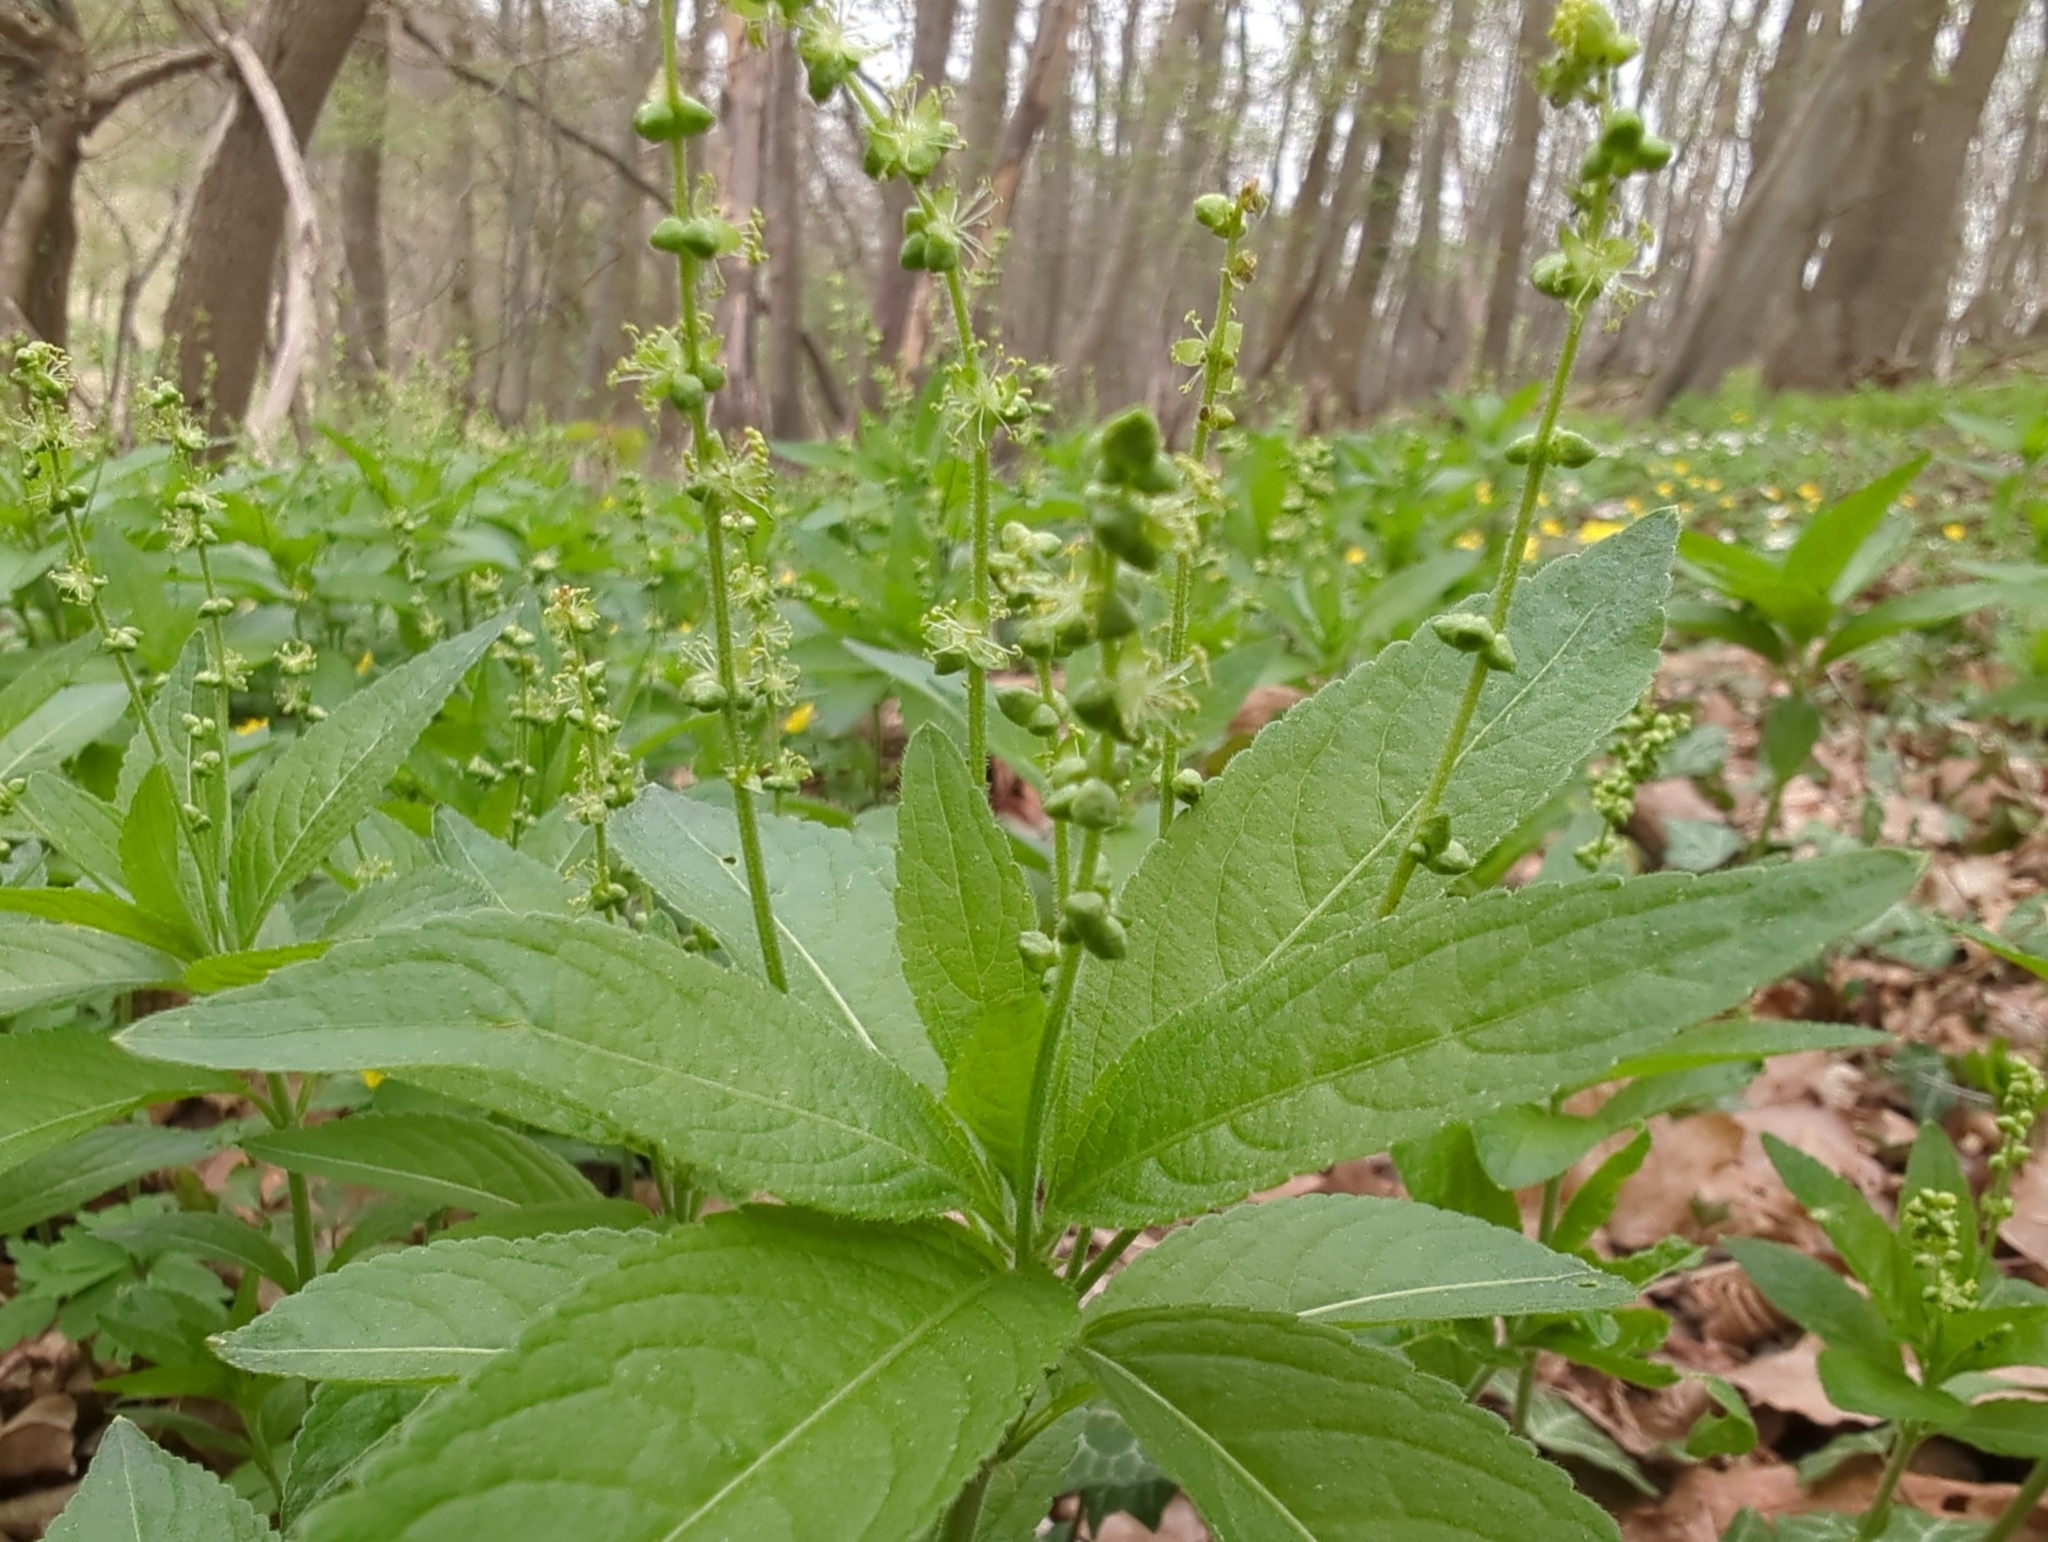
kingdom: Plantae
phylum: Tracheophyta
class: Magnoliopsida
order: Malpighiales
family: Euphorbiaceae
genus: Mercurialis
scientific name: Mercurialis perennis
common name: Dog mercury
